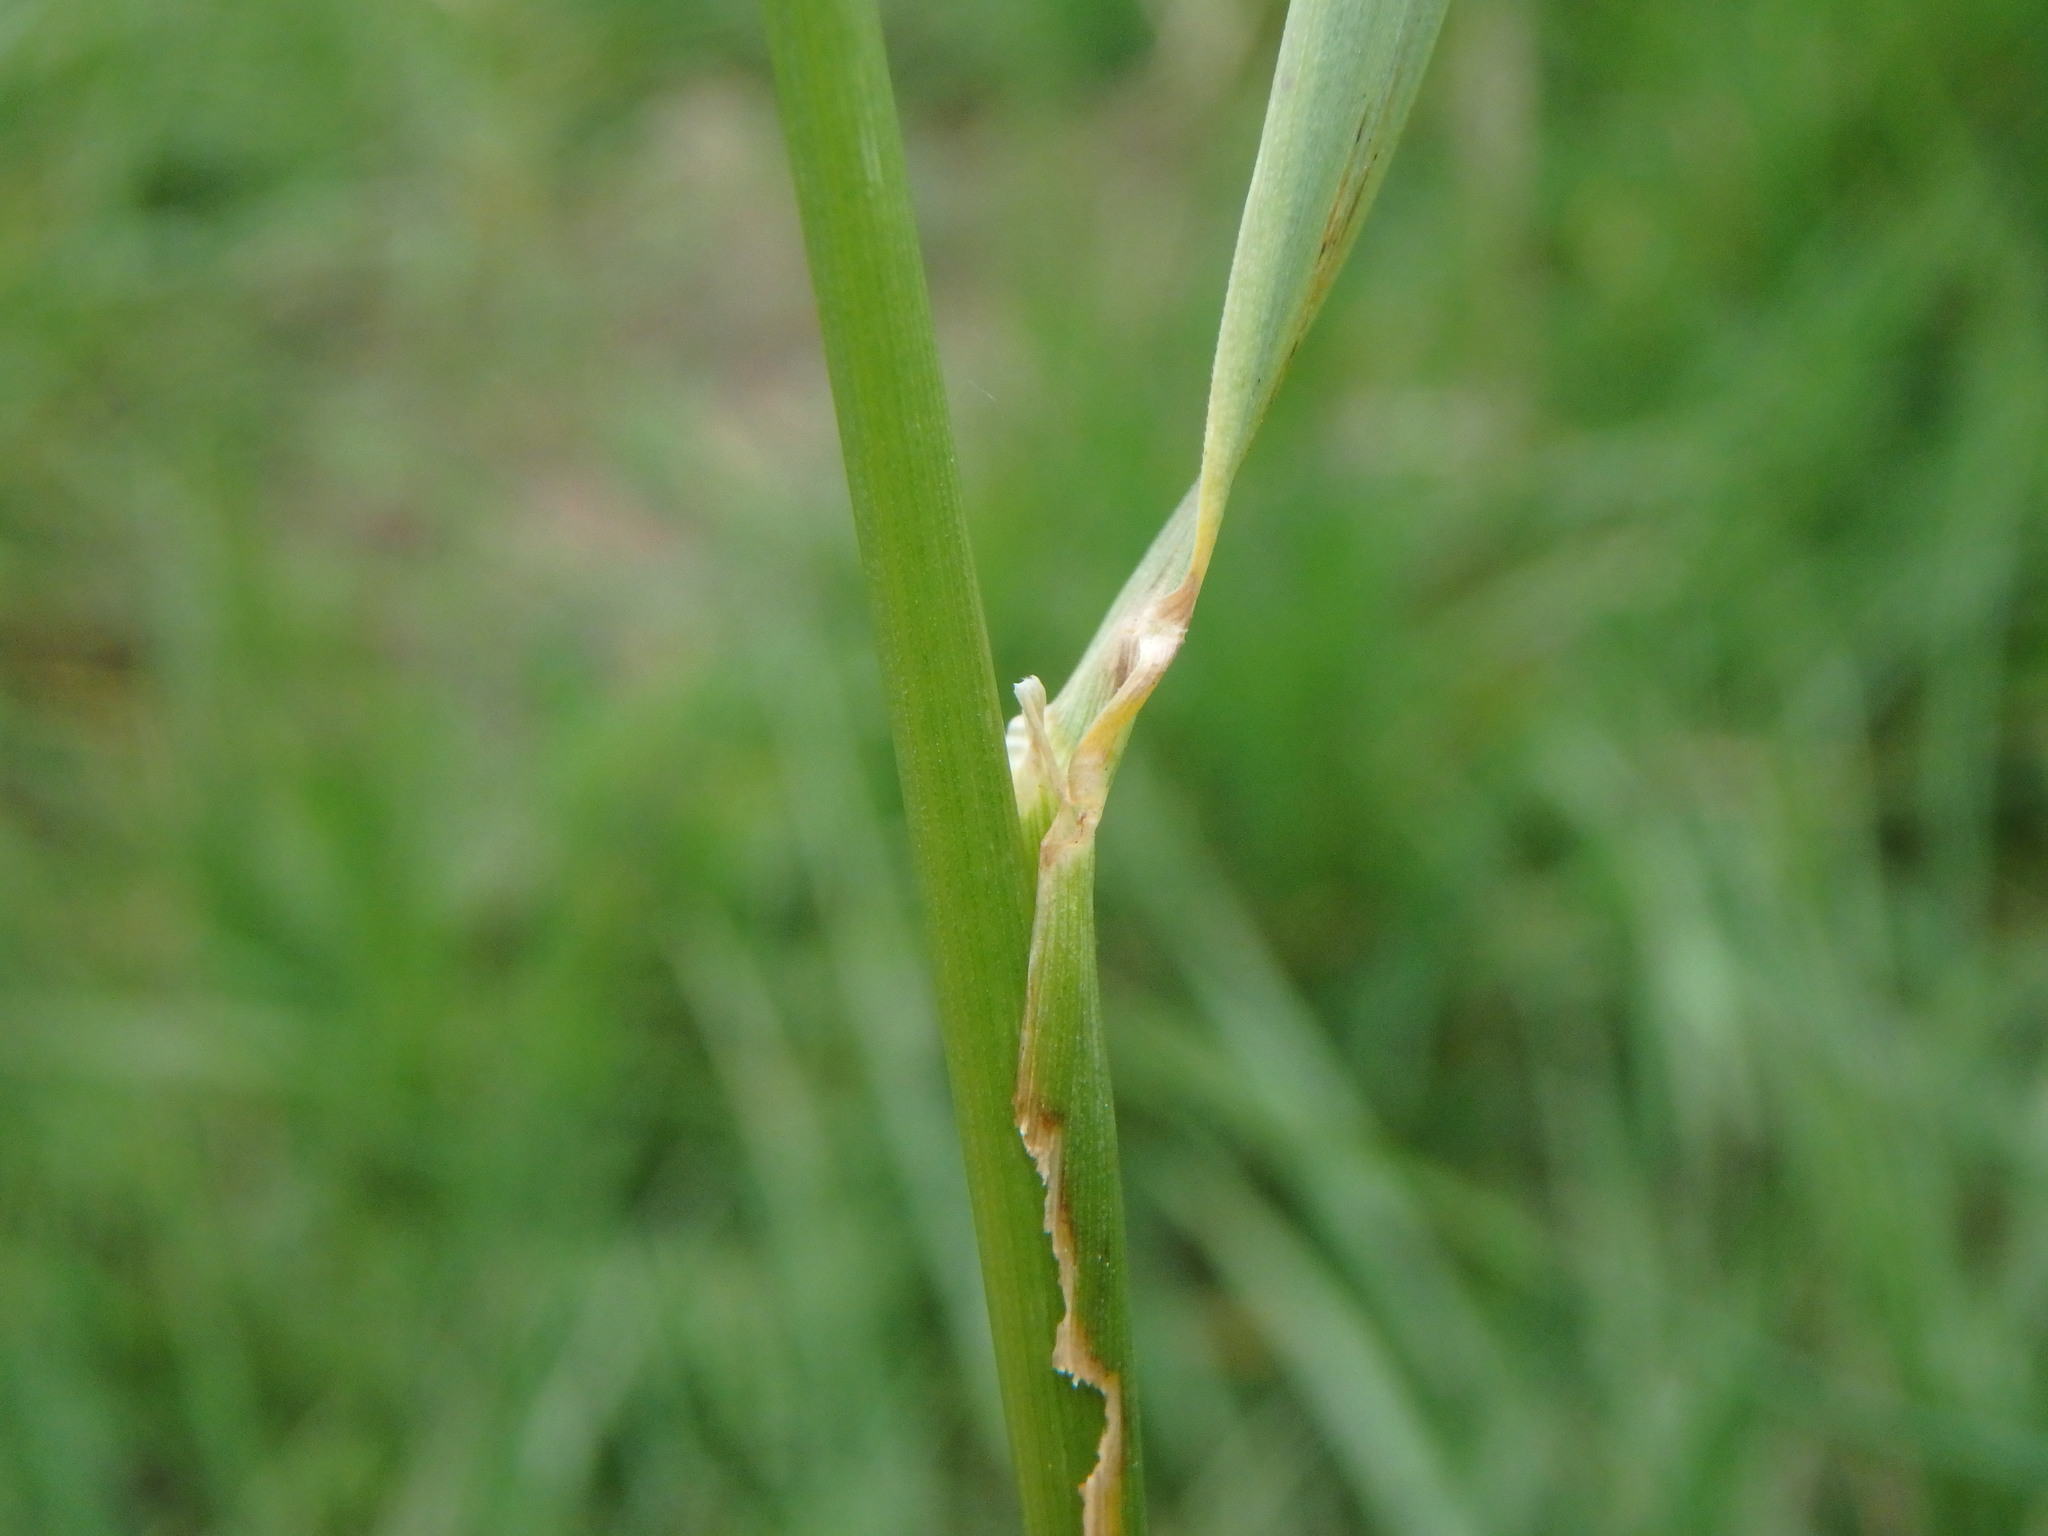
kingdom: Plantae
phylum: Tracheophyta
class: Liliopsida
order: Poales
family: Poaceae
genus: Alopecurus
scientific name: Alopecurus pratensis
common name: Meadow foxtail
